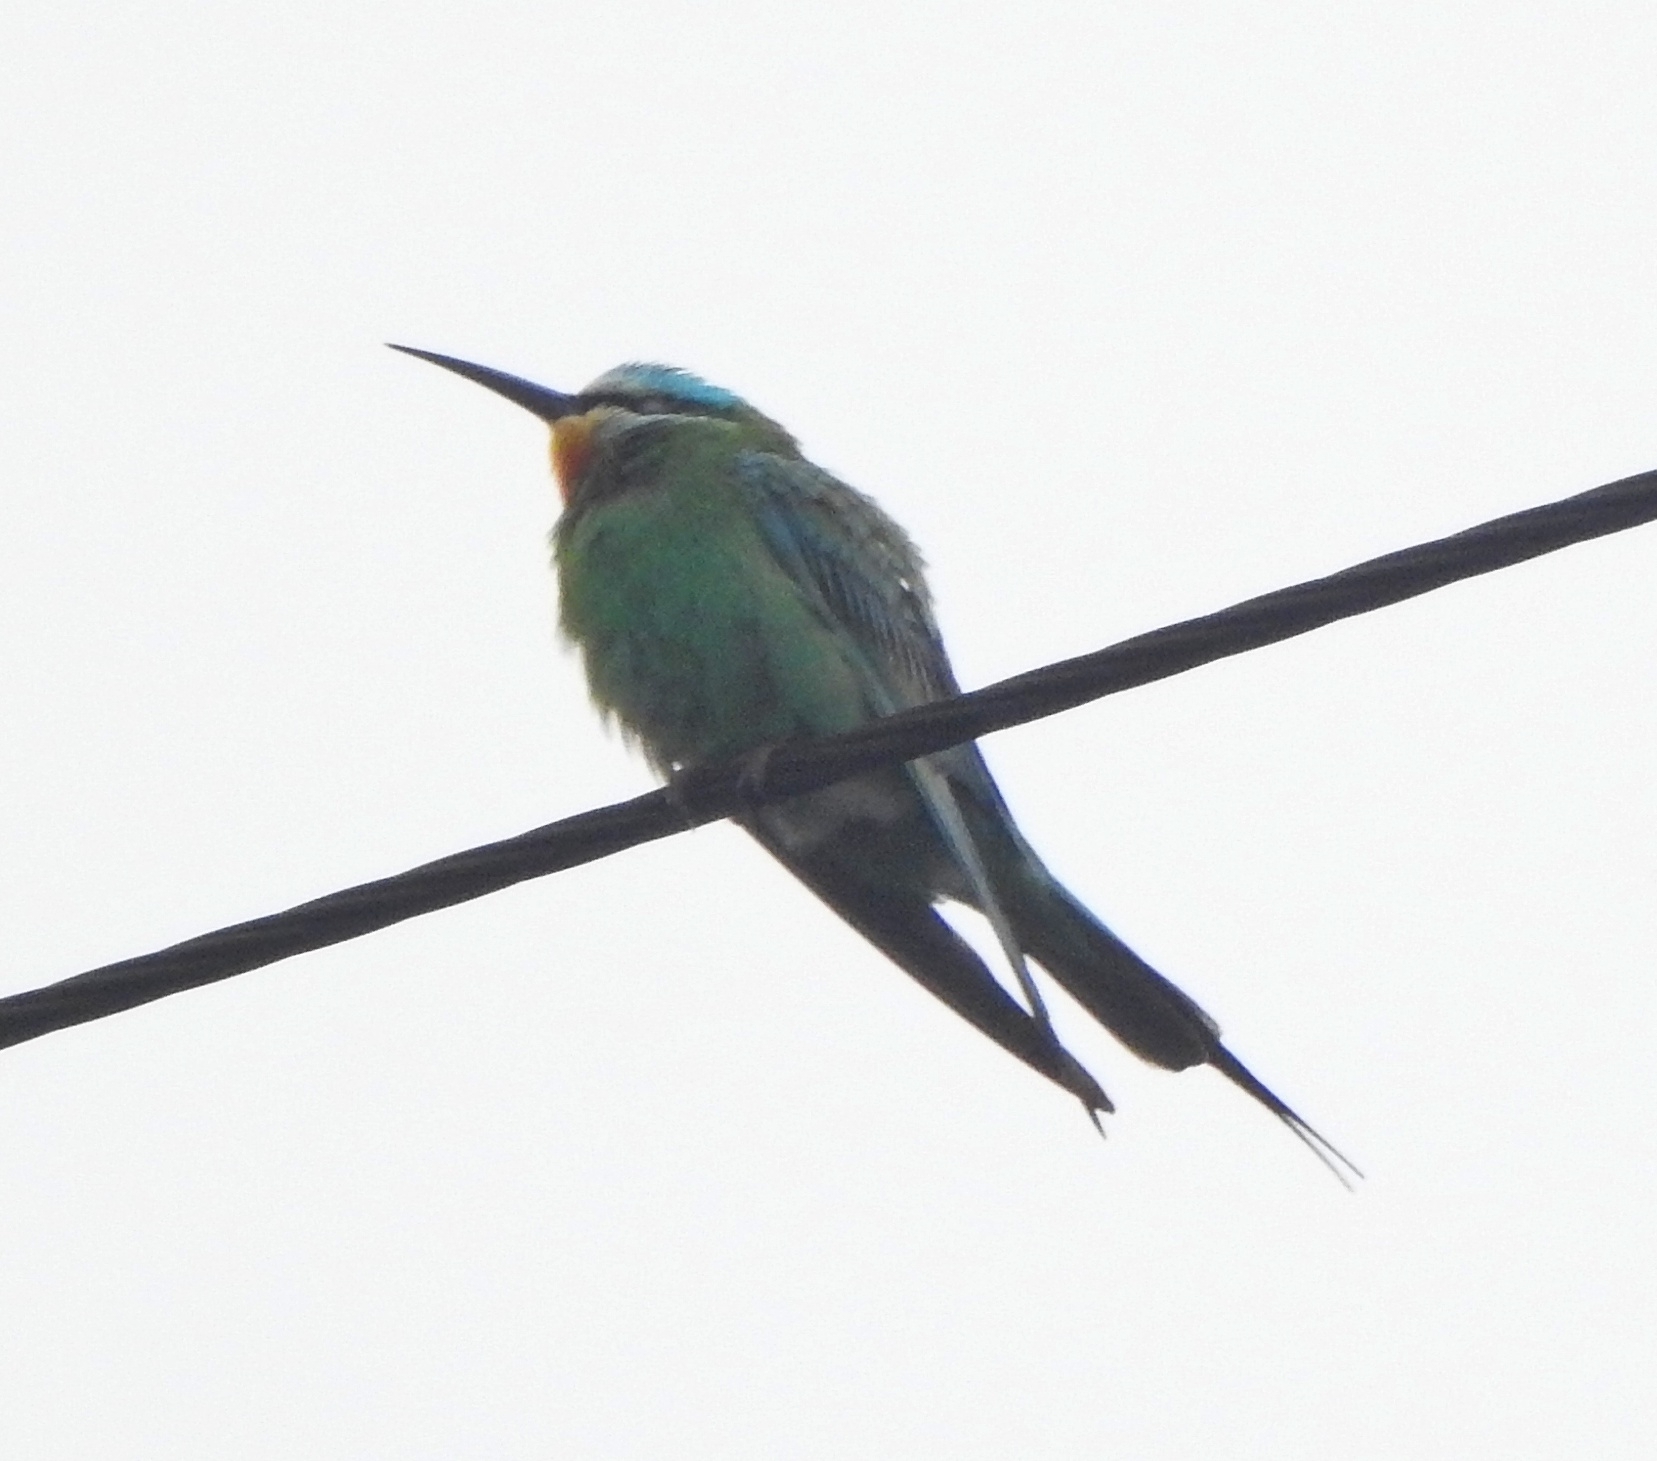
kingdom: Animalia
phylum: Chordata
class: Aves
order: Coraciiformes
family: Meropidae
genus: Merops
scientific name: Merops persicus
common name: Blue-cheeked bee-eater
